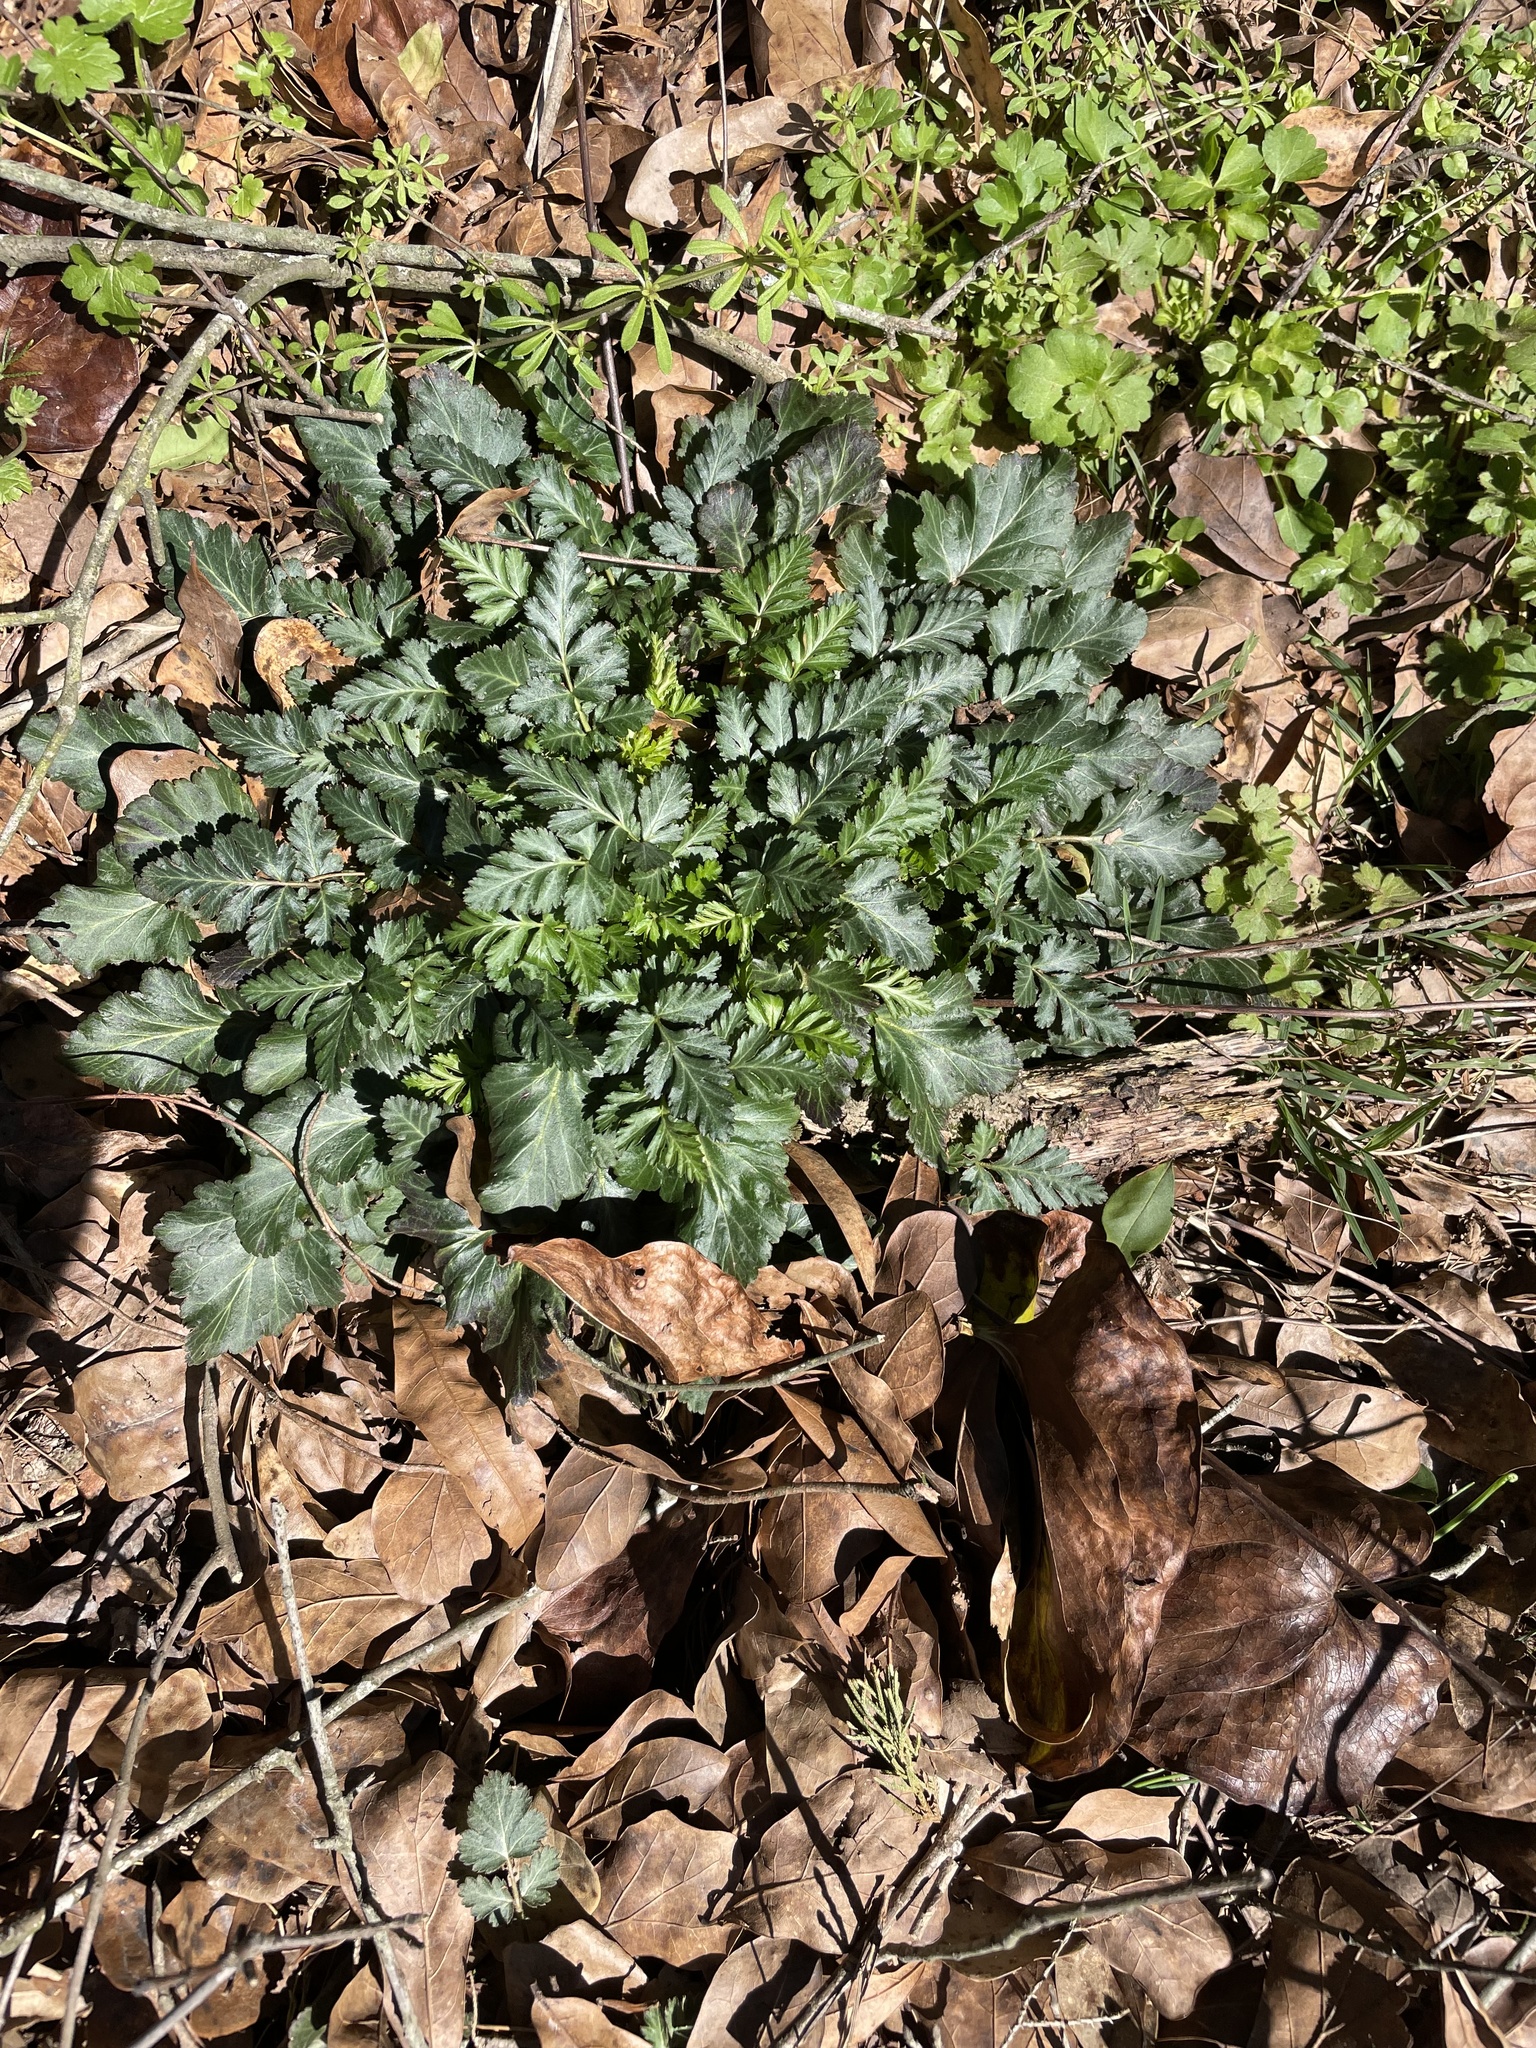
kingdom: Plantae
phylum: Tracheophyta
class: Magnoliopsida
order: Rosales
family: Rosaceae
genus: Geum
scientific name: Geum canadense
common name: White avens
